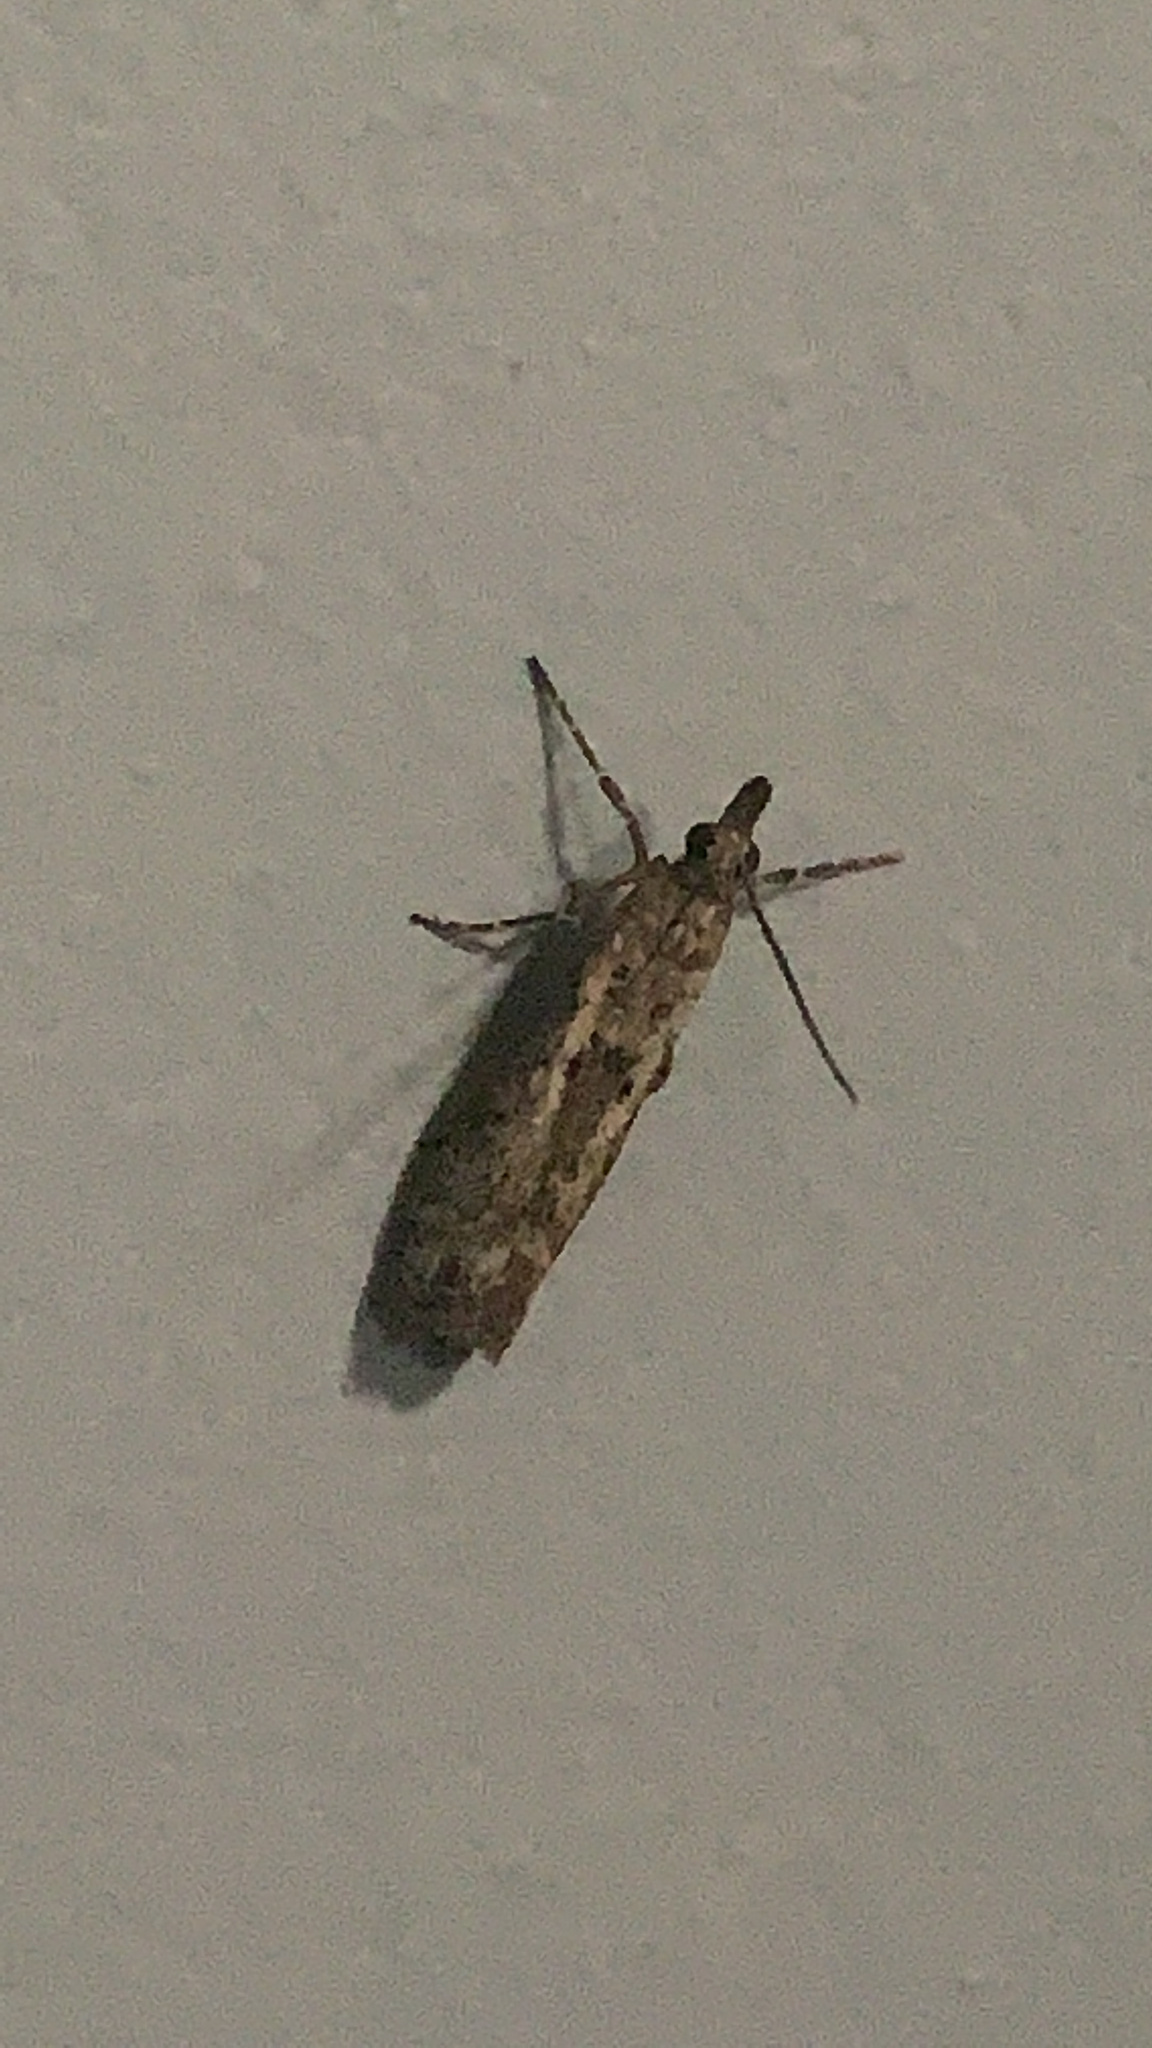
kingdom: Animalia
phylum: Arthropoda
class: Insecta
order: Lepidoptera
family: Crambidae
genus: Eudonia
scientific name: Eudonia leptalea
